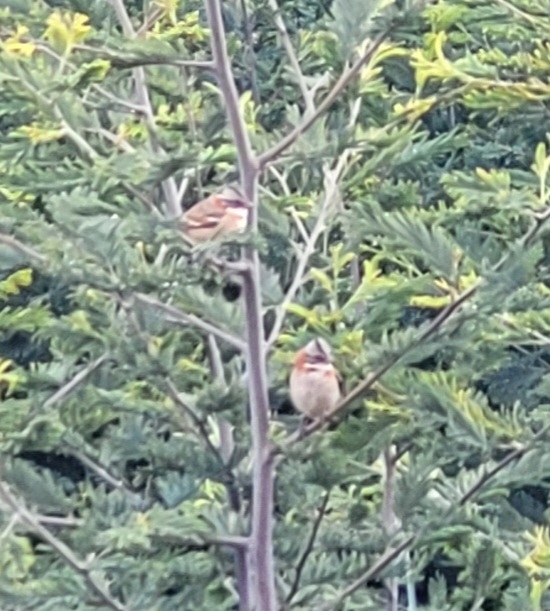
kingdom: Animalia
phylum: Chordata
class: Aves
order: Passeriformes
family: Passerellidae
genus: Zonotrichia
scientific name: Zonotrichia capensis
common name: Rufous-collared sparrow
